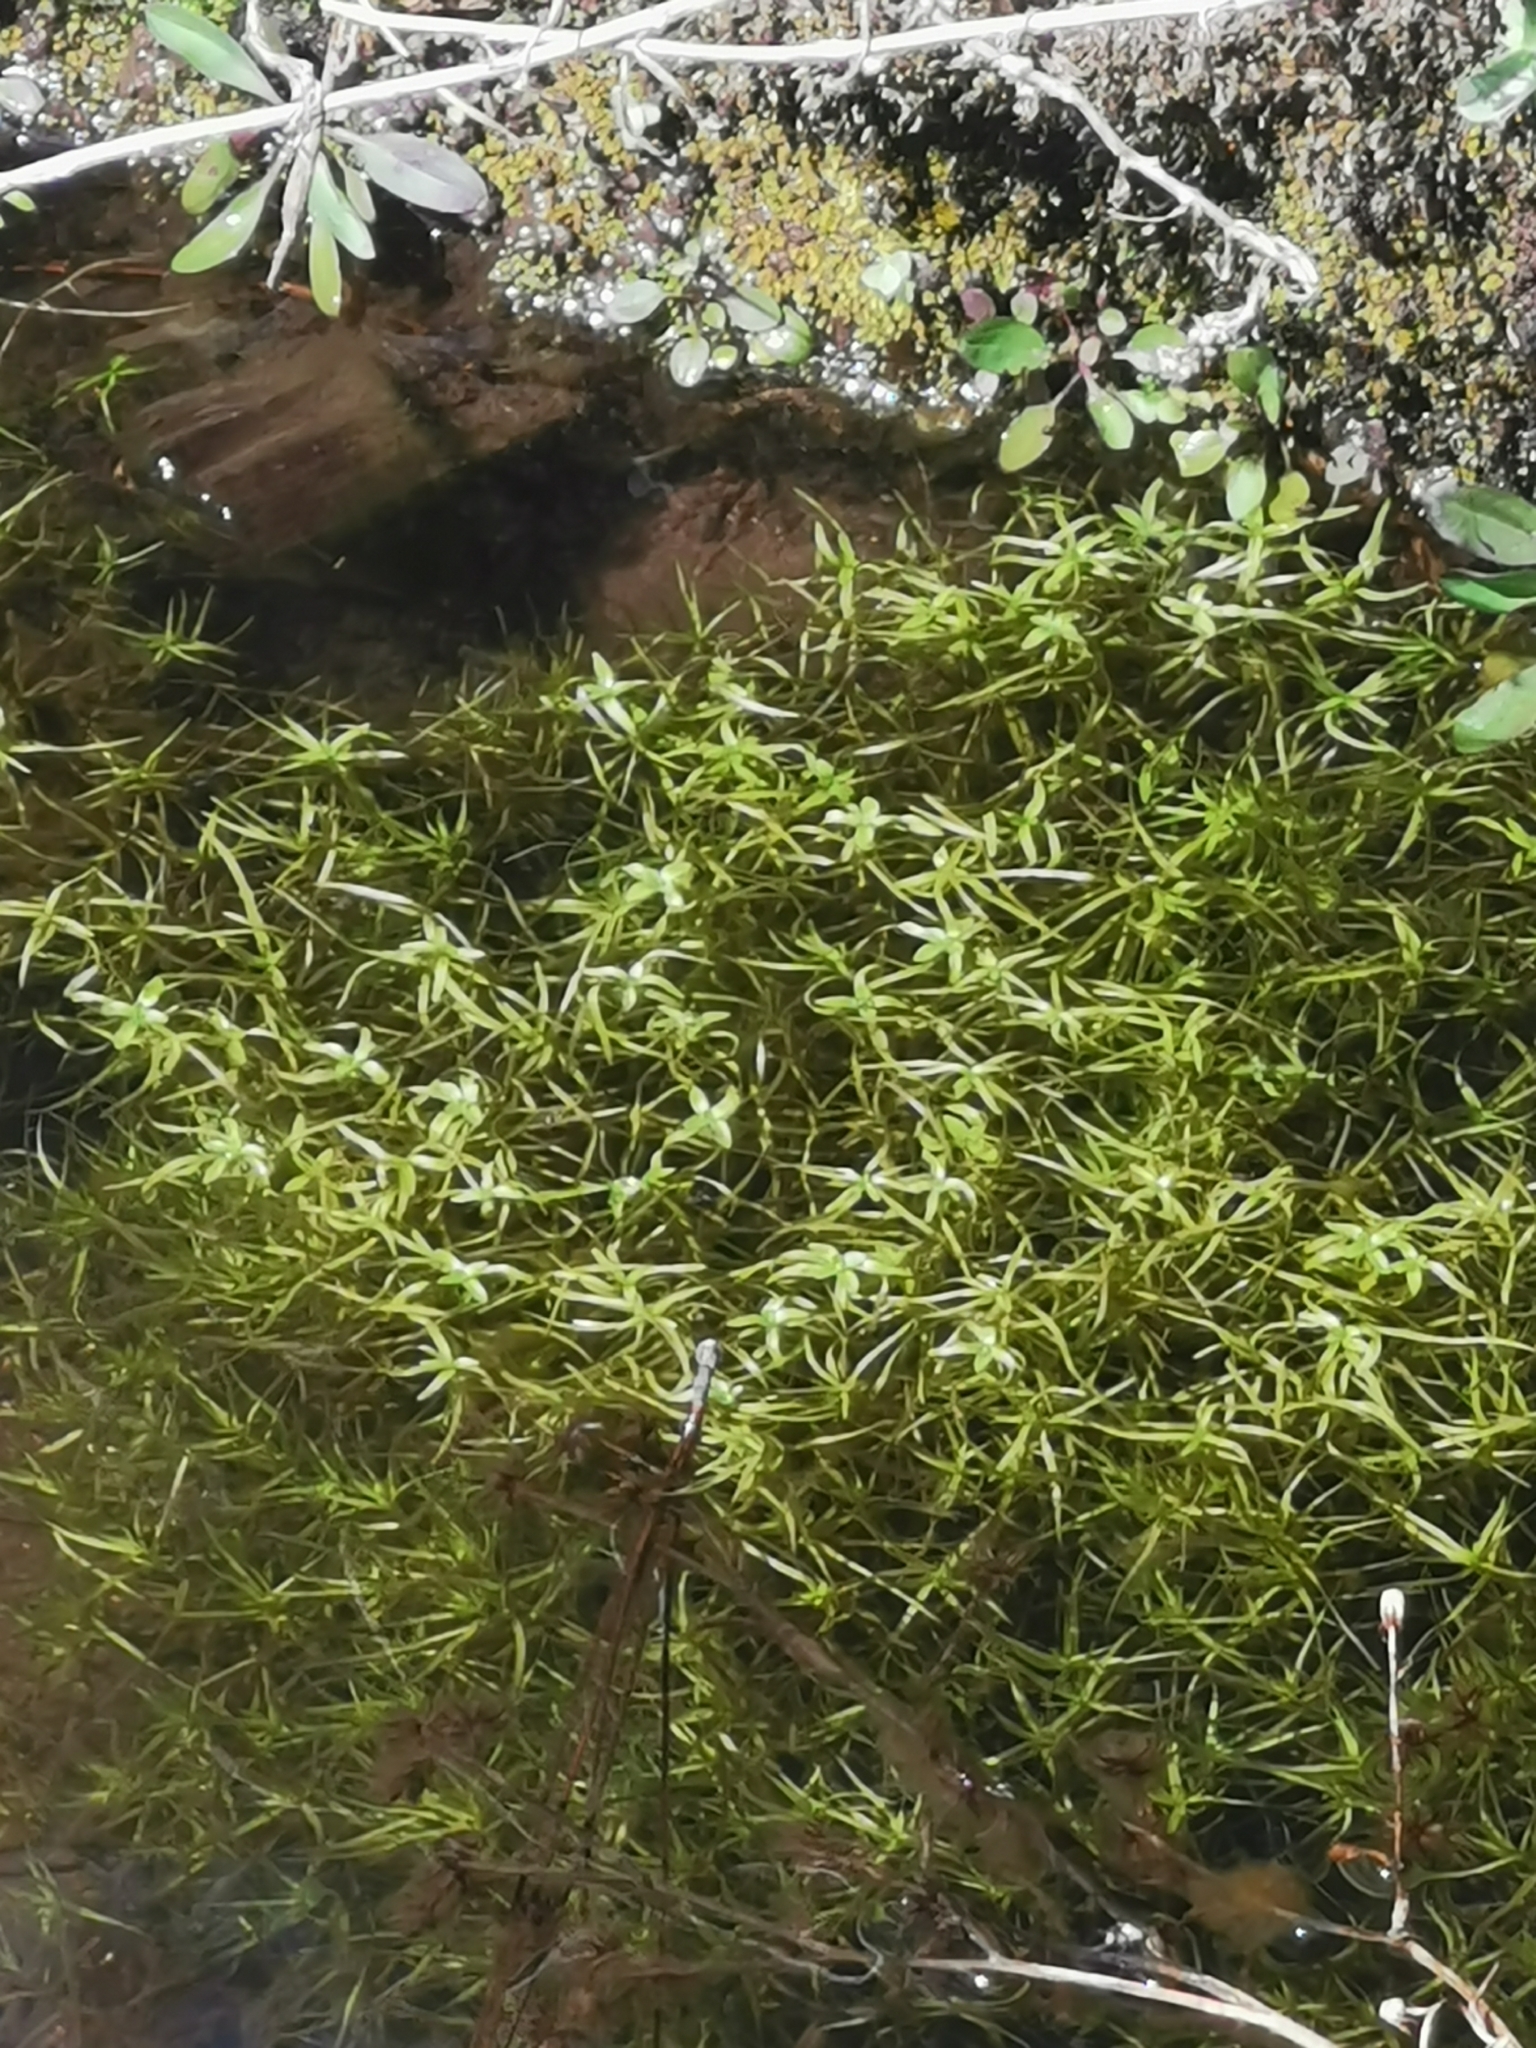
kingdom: Plantae
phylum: Tracheophyta
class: Magnoliopsida
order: Lamiales
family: Plantaginaceae
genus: Callitriche
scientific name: Callitriche heterophylla
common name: Two-headed water-starwort
